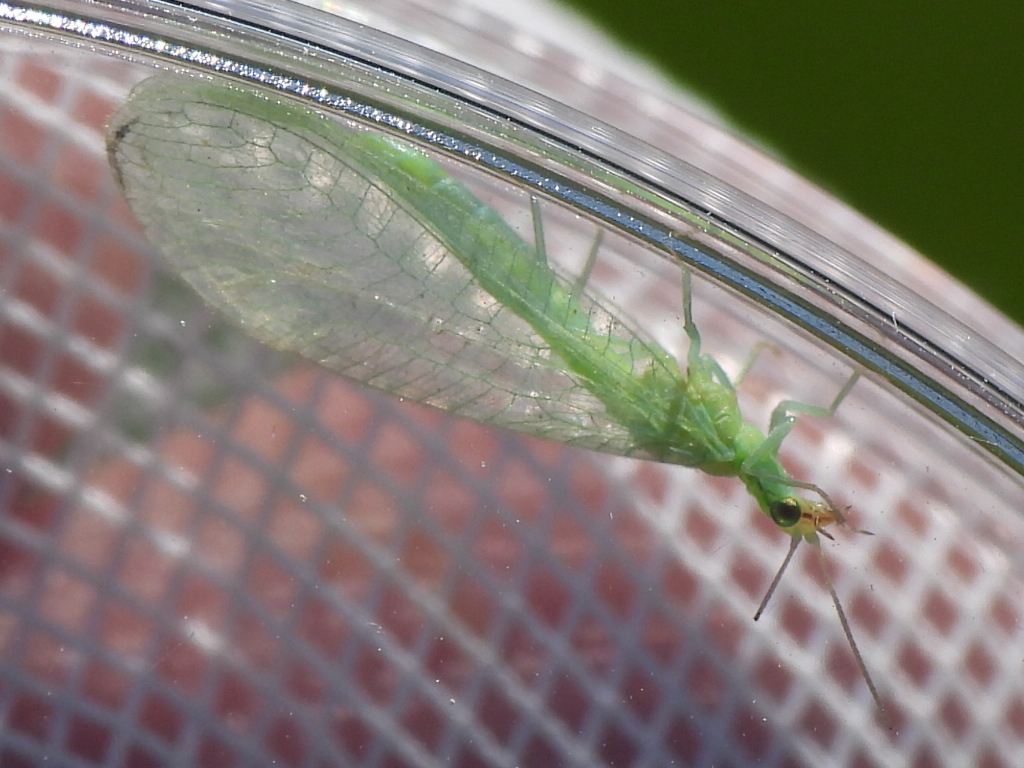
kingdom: Animalia
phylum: Arthropoda
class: Insecta
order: Neuroptera
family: Chrysopidae
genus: Chrysoperla
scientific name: Chrysoperla rufilabris
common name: Red-lipped green lacewing
